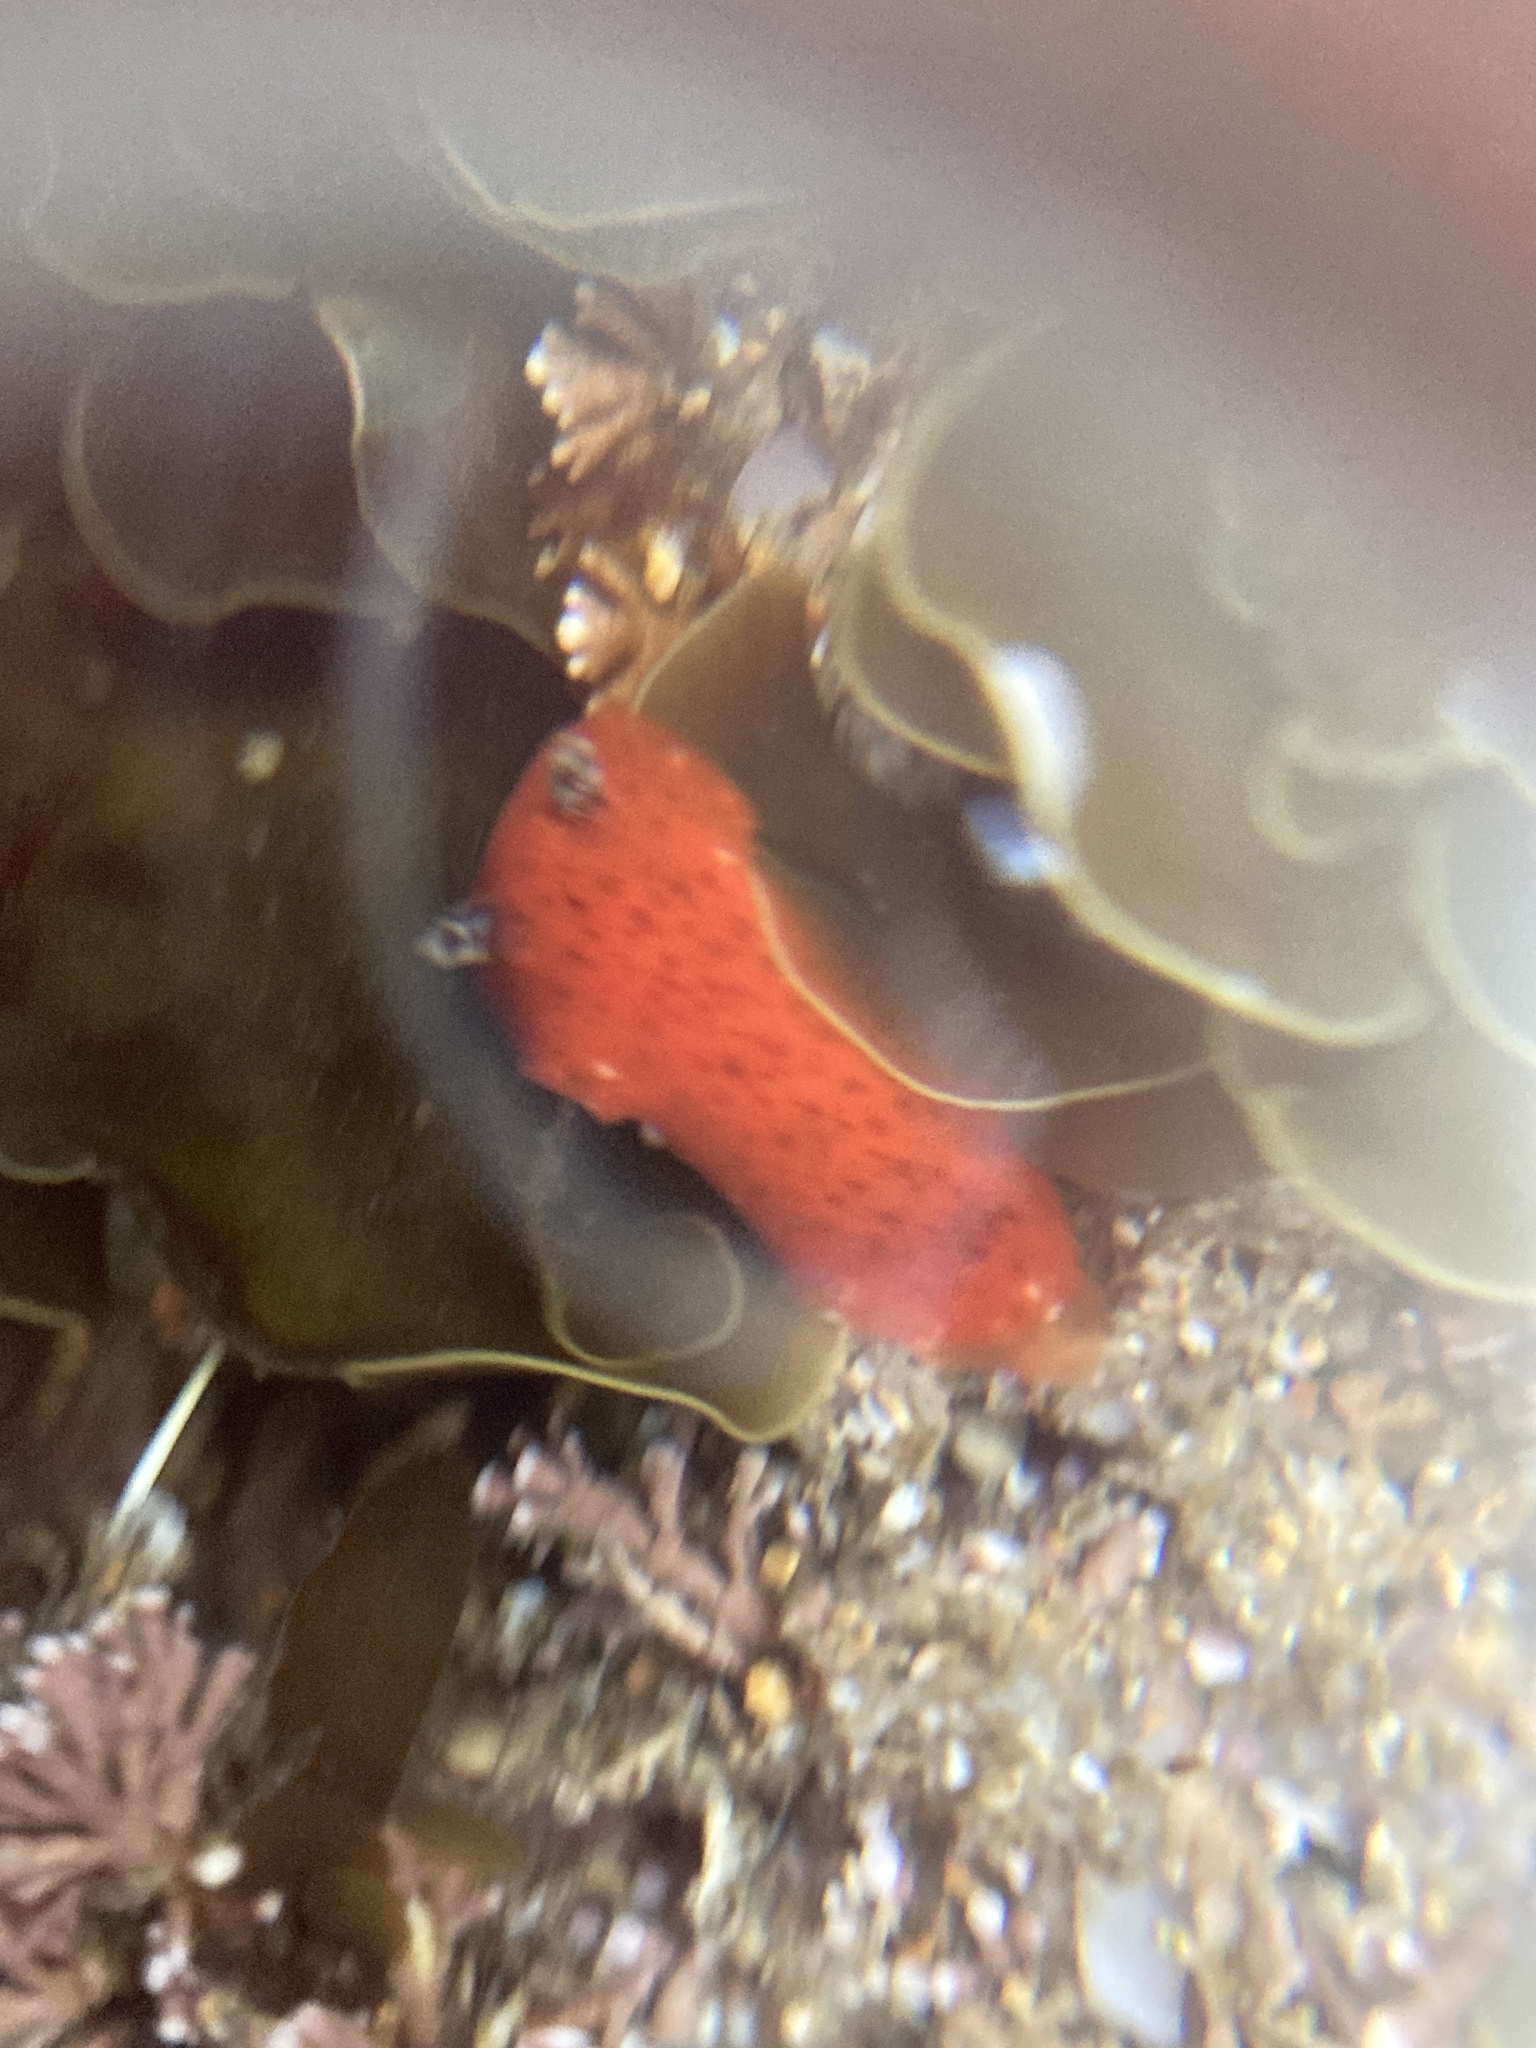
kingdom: Animalia
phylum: Mollusca
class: Gastropoda
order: Nudibranchia
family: Discodorididae
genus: Rostanga
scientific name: Rostanga arbutus
